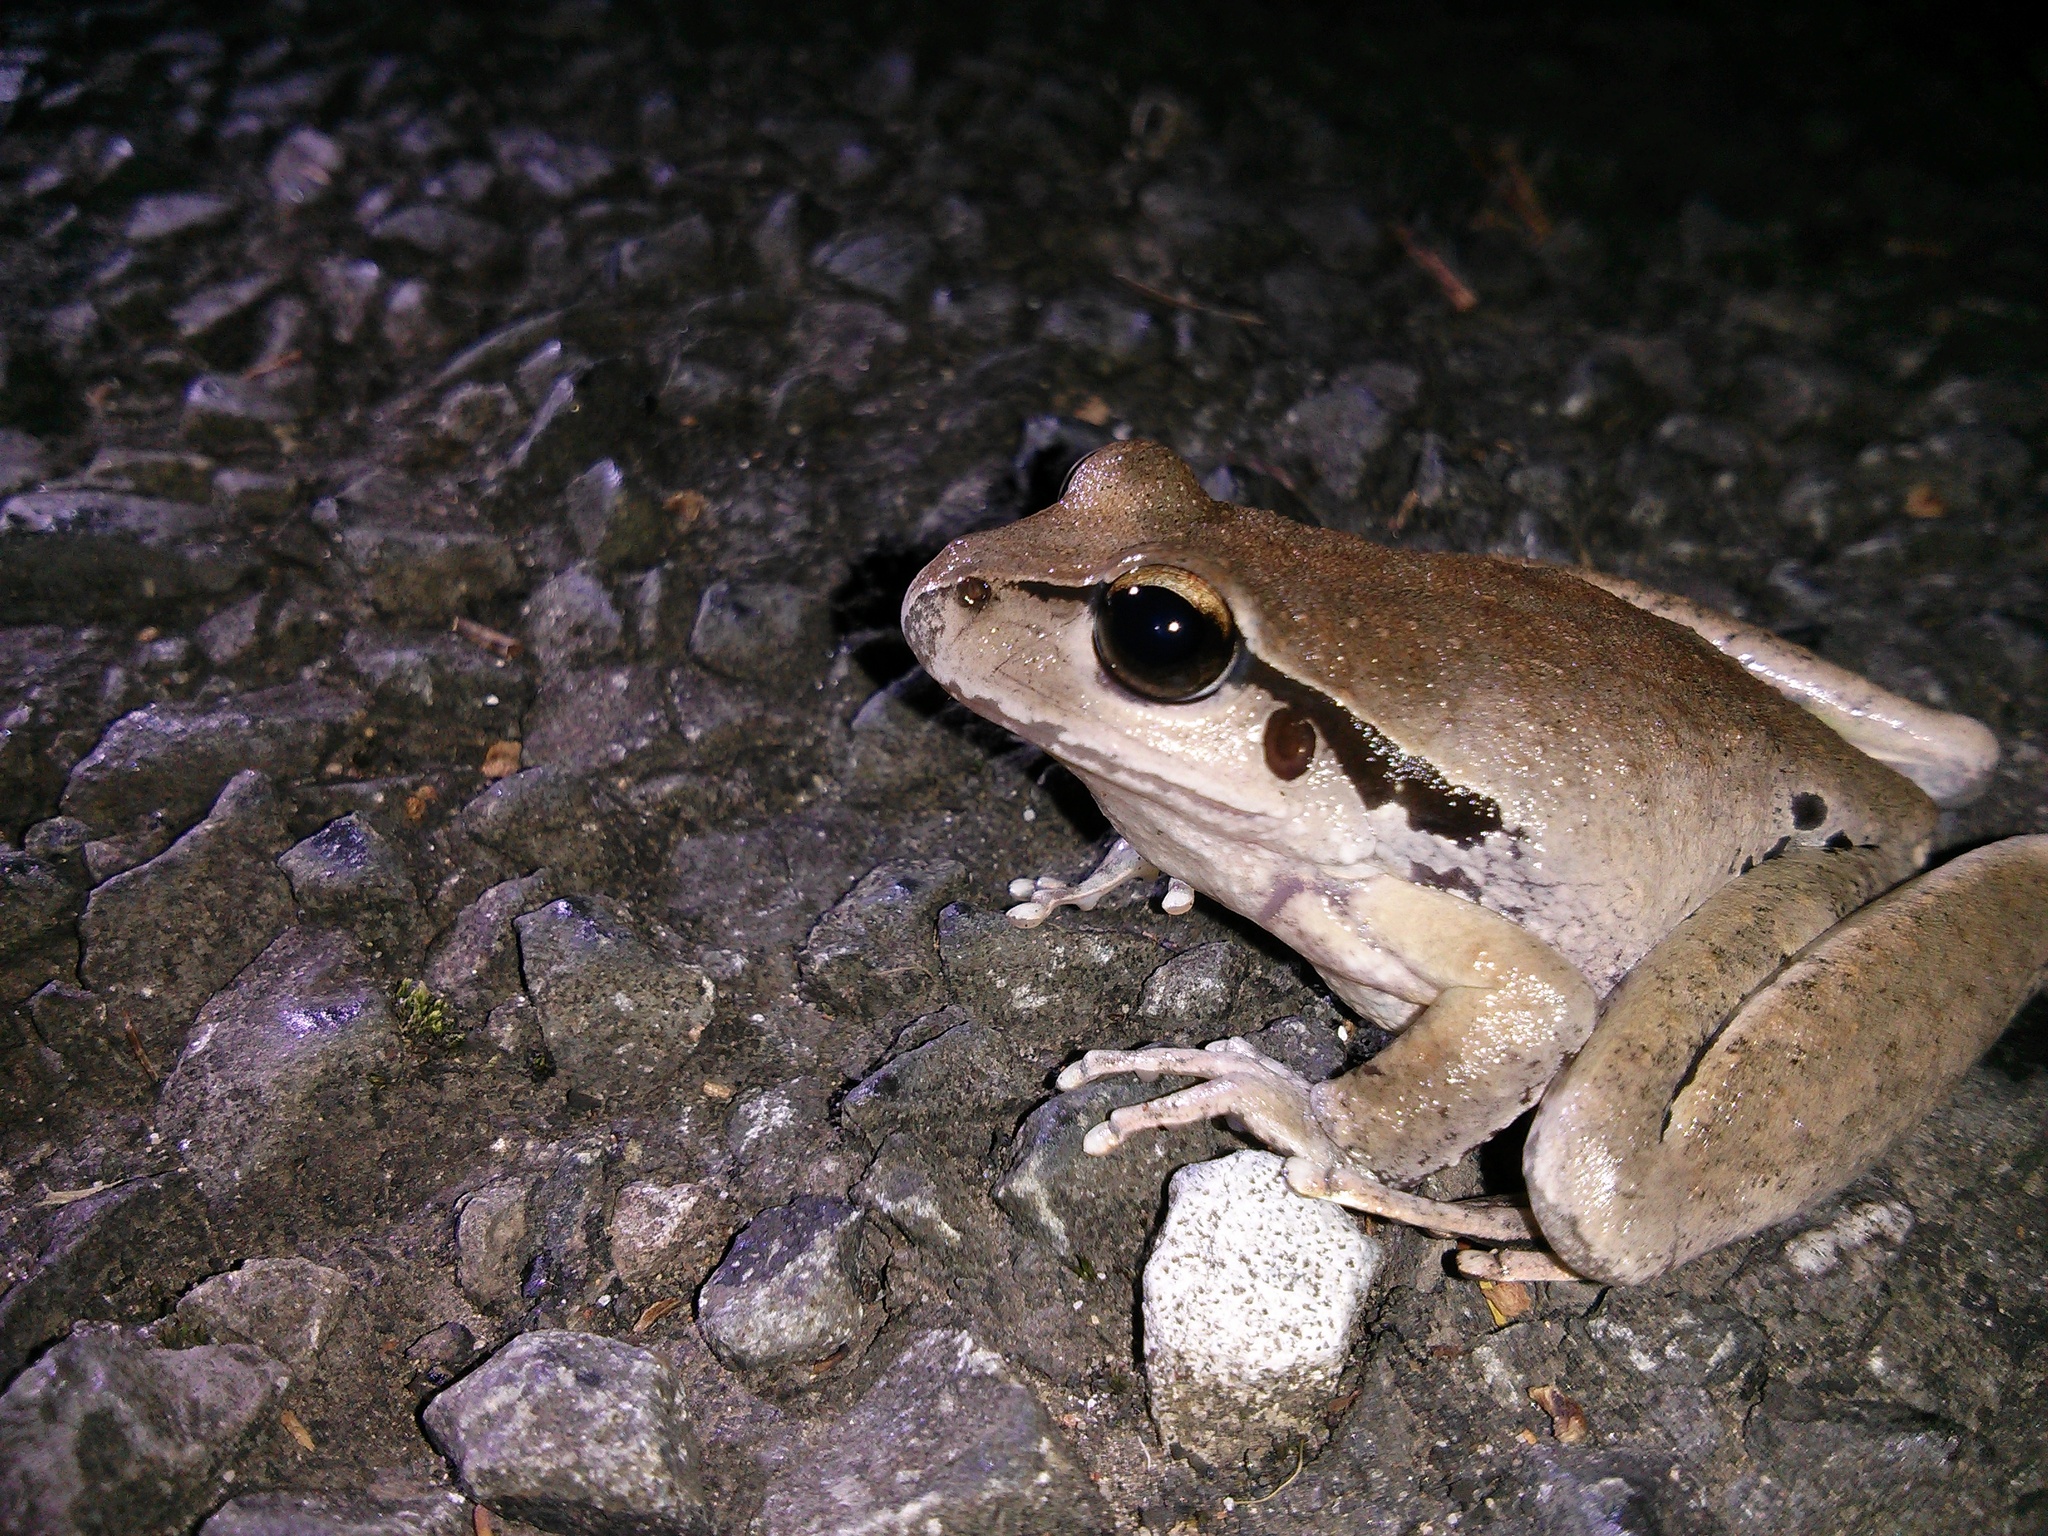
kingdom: Animalia
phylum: Chordata
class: Amphibia
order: Anura
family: Pelodryadidae
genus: Ranoidea
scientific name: Ranoidea lesueurii
